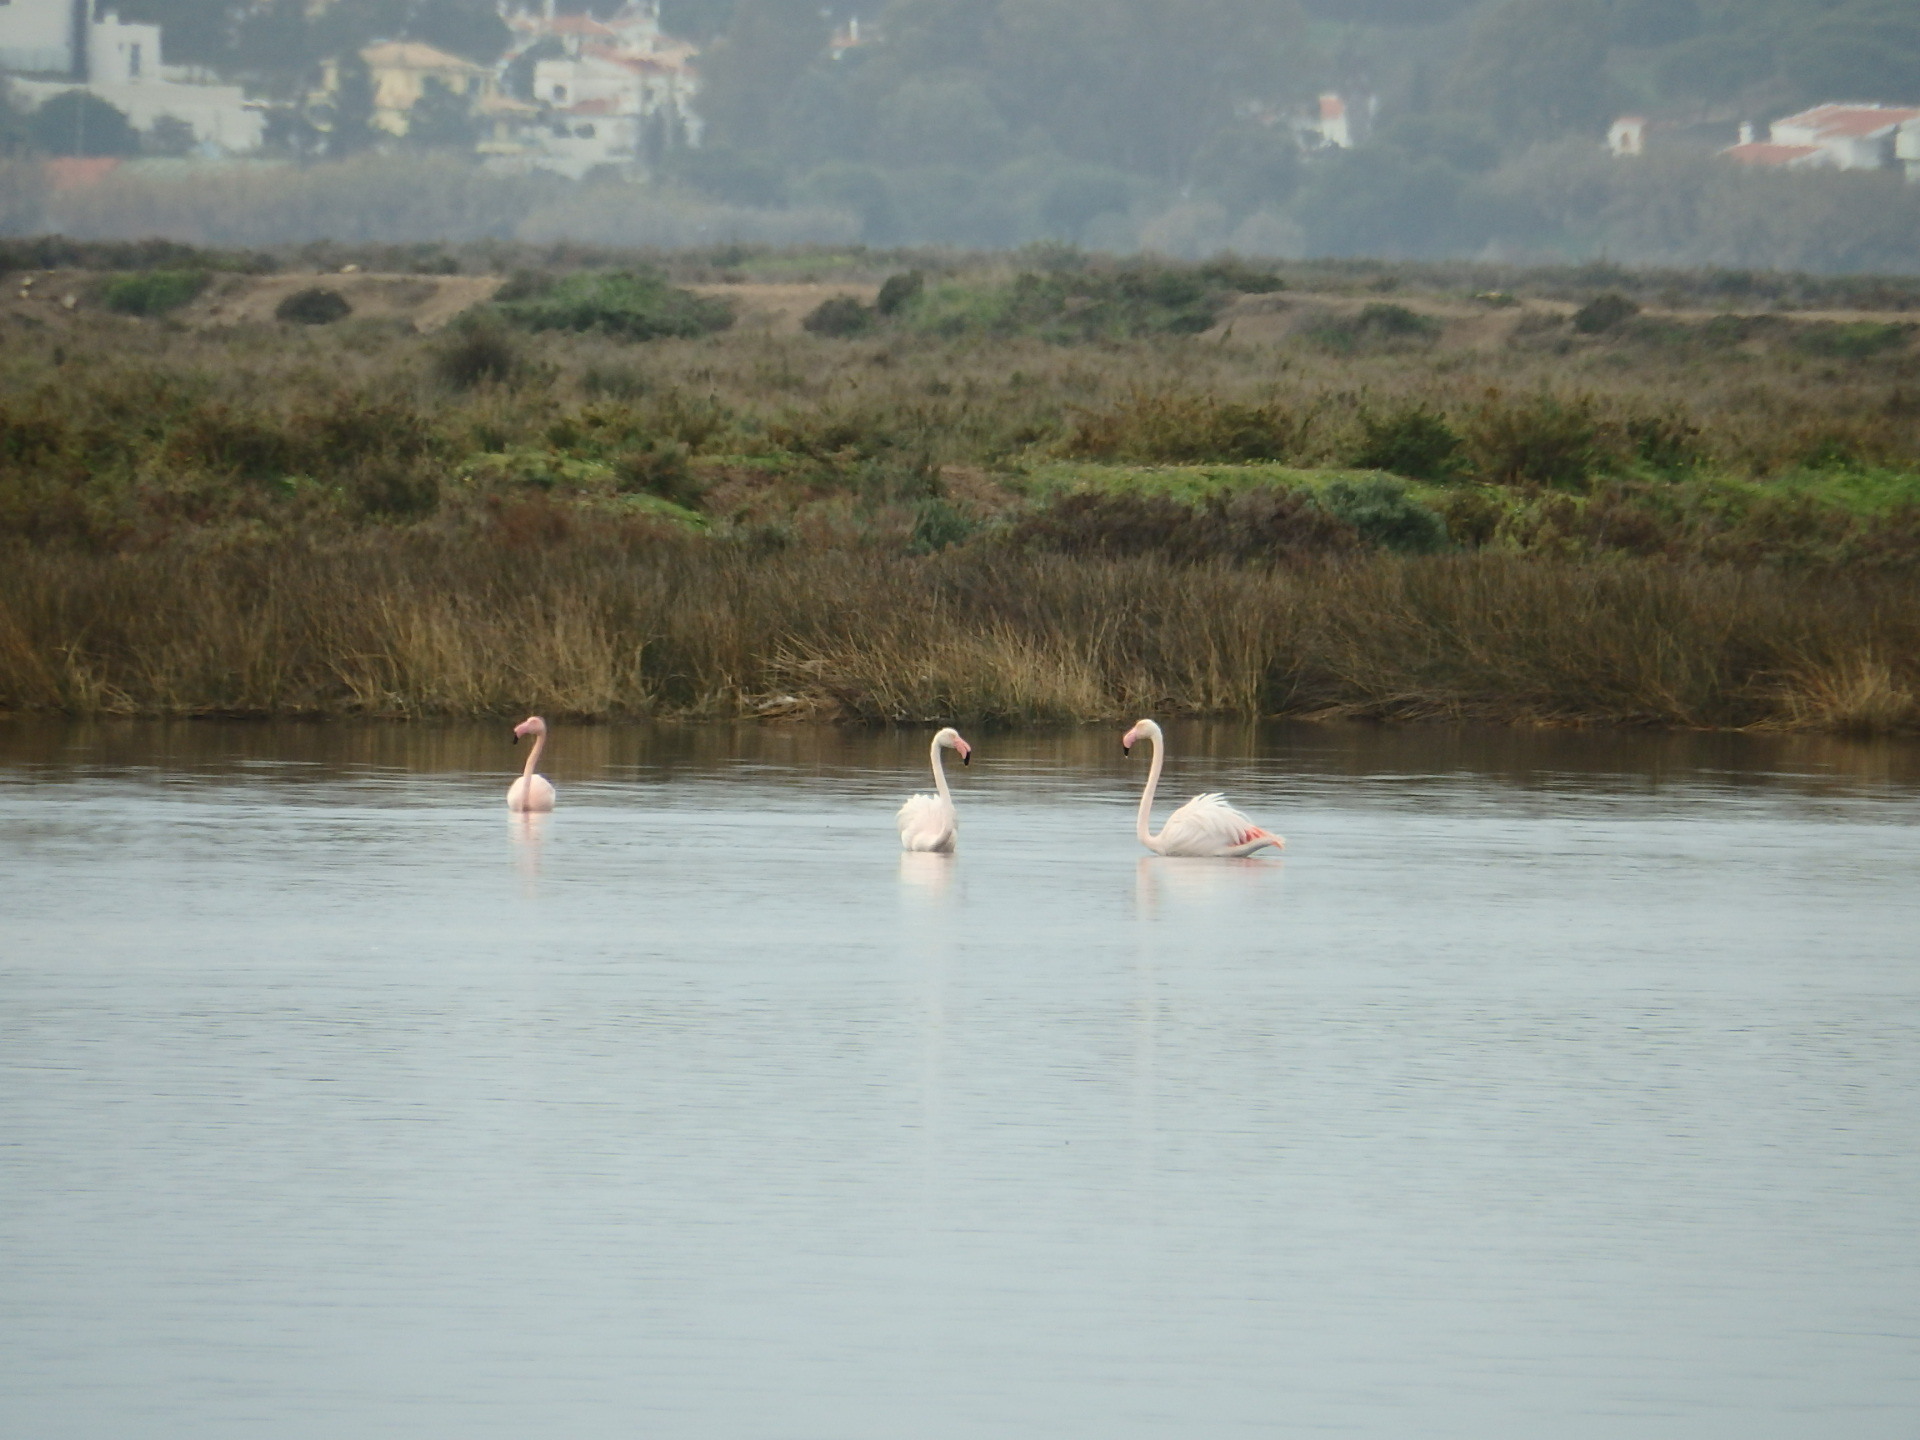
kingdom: Animalia
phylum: Chordata
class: Aves
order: Phoenicopteriformes
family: Phoenicopteridae
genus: Phoenicopterus
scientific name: Phoenicopterus roseus
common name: Greater flamingo
